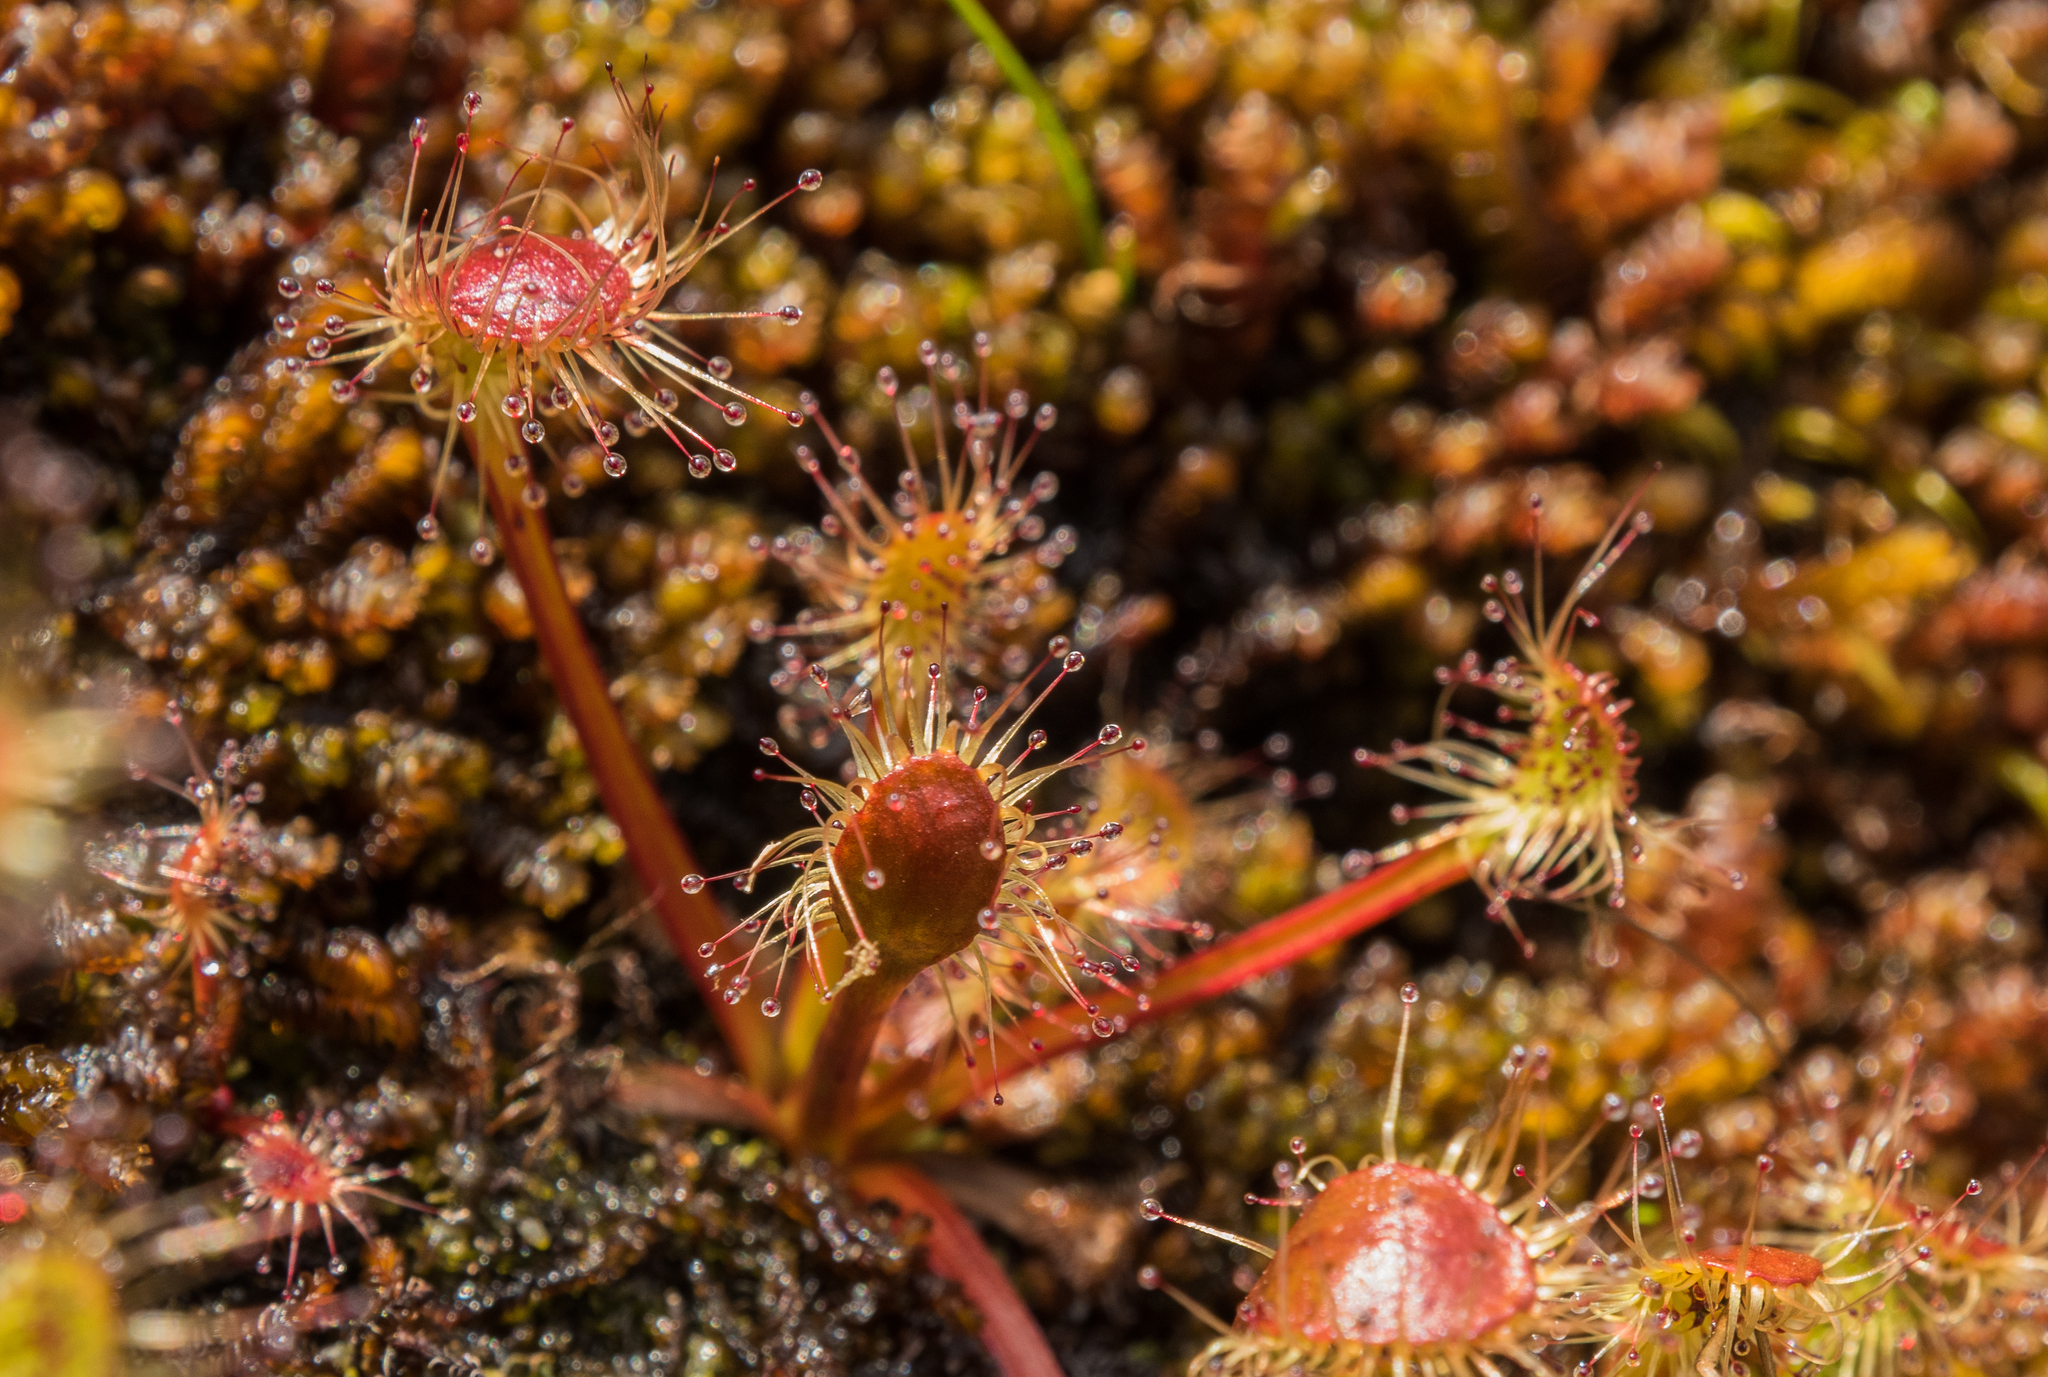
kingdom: Plantae
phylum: Tracheophyta
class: Magnoliopsida
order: Caryophyllales
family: Droseraceae
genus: Drosera
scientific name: Drosera stenopetala
